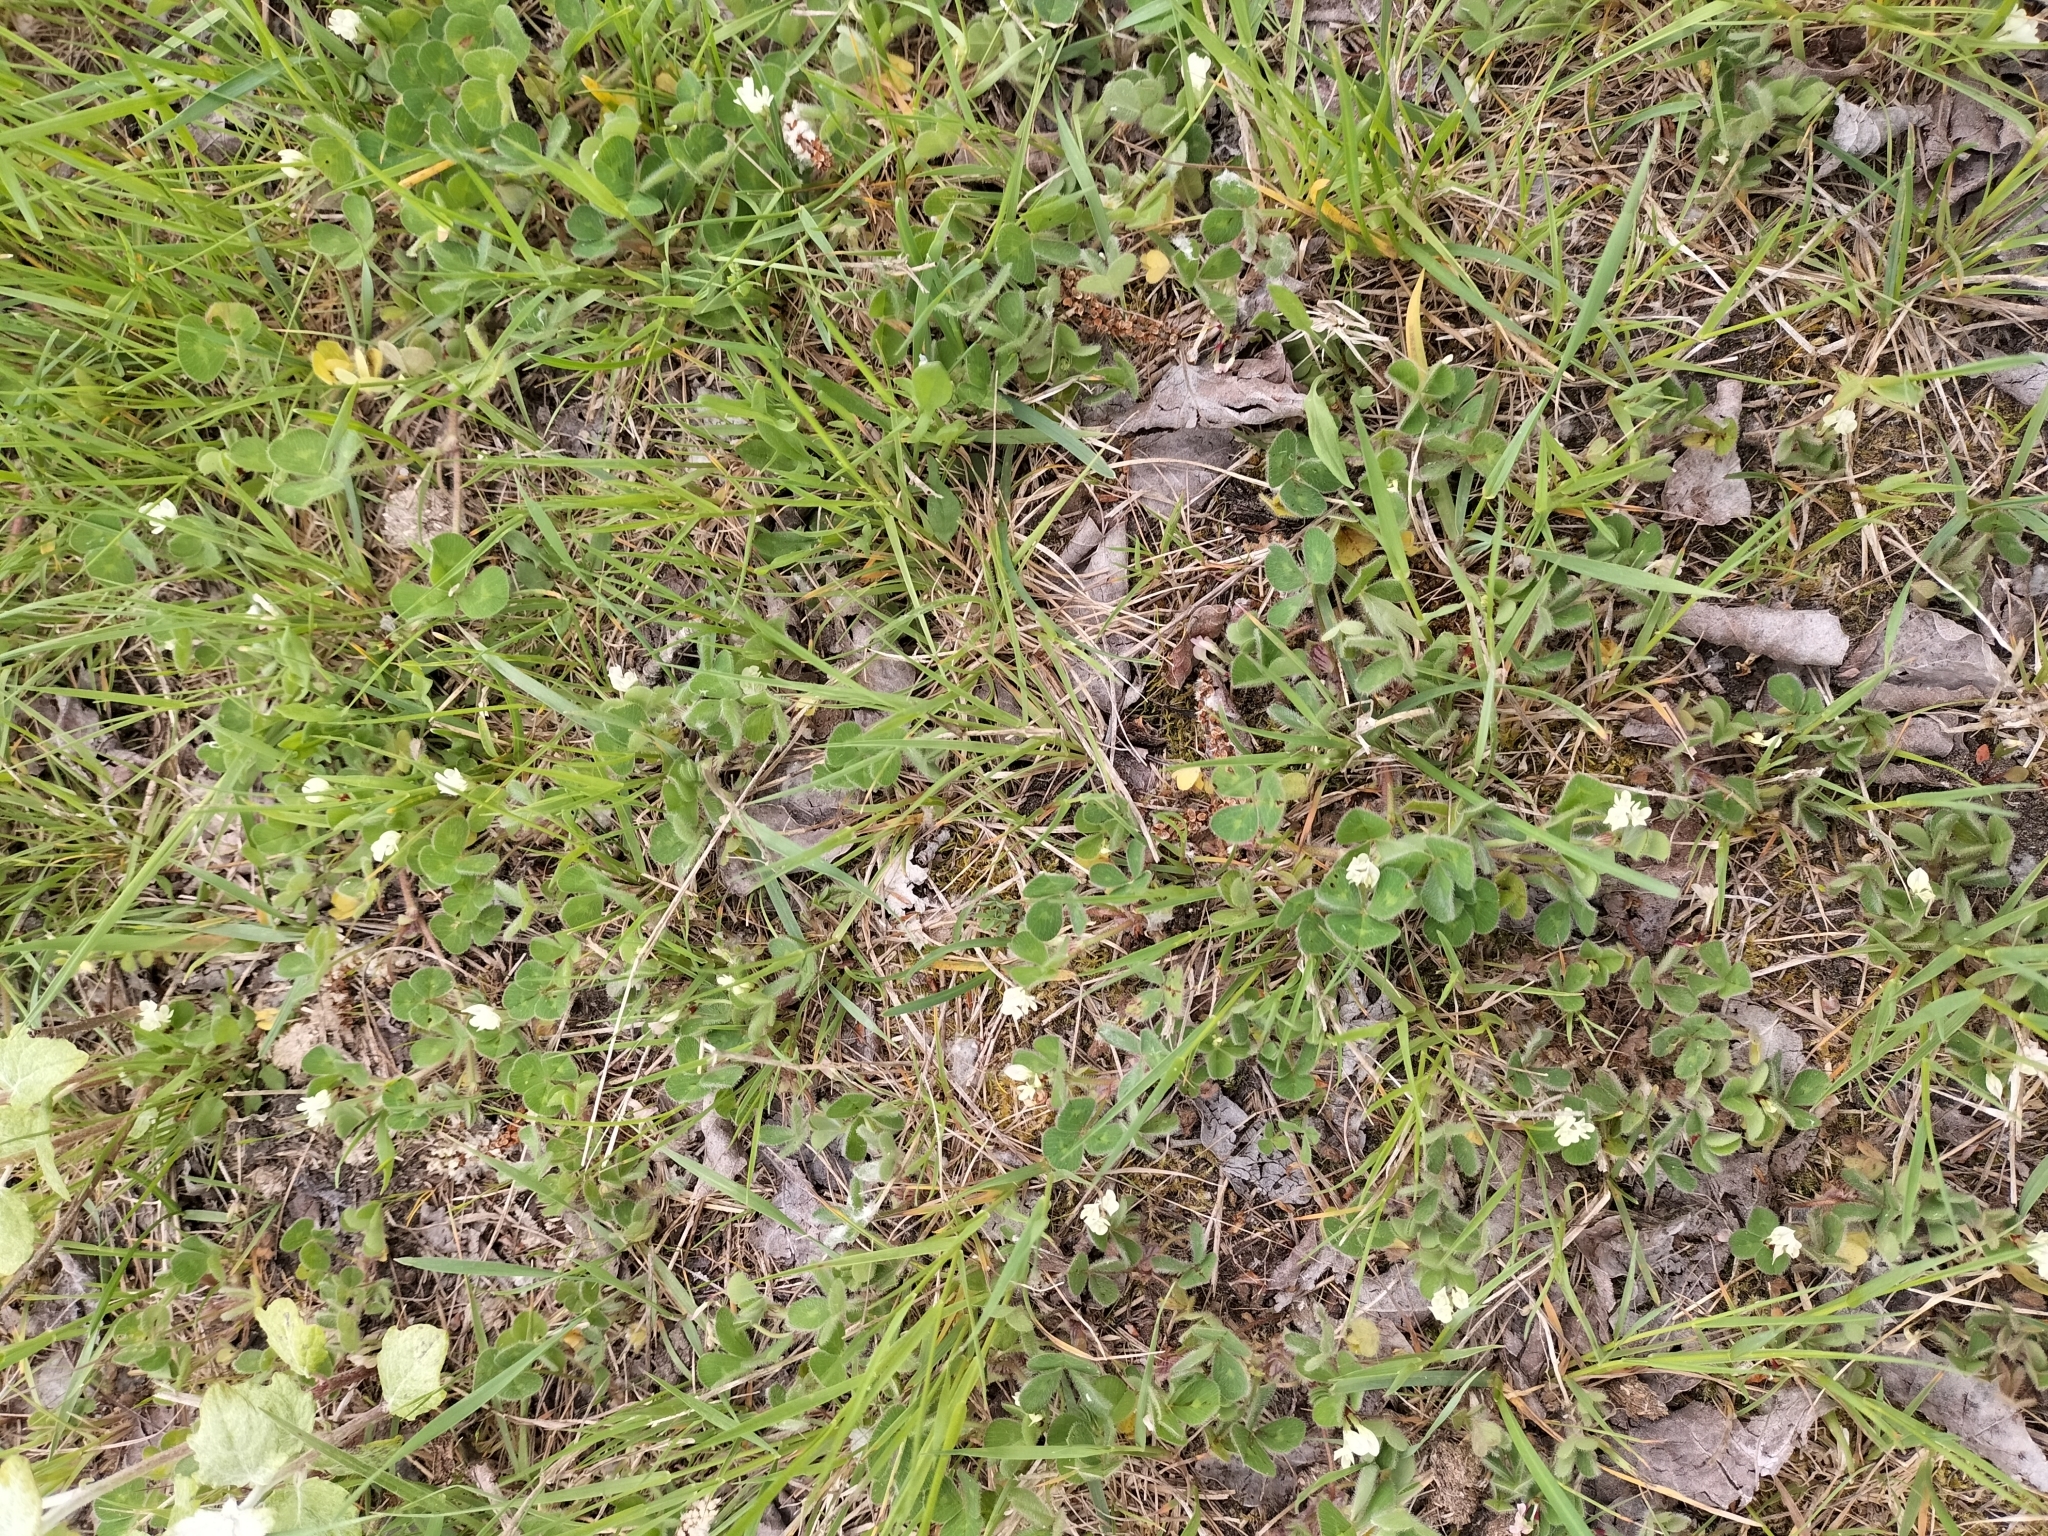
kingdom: Plantae
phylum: Tracheophyta
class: Magnoliopsida
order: Fabales
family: Fabaceae
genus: Trifolium
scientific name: Trifolium subterraneum
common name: Subterranean clover
